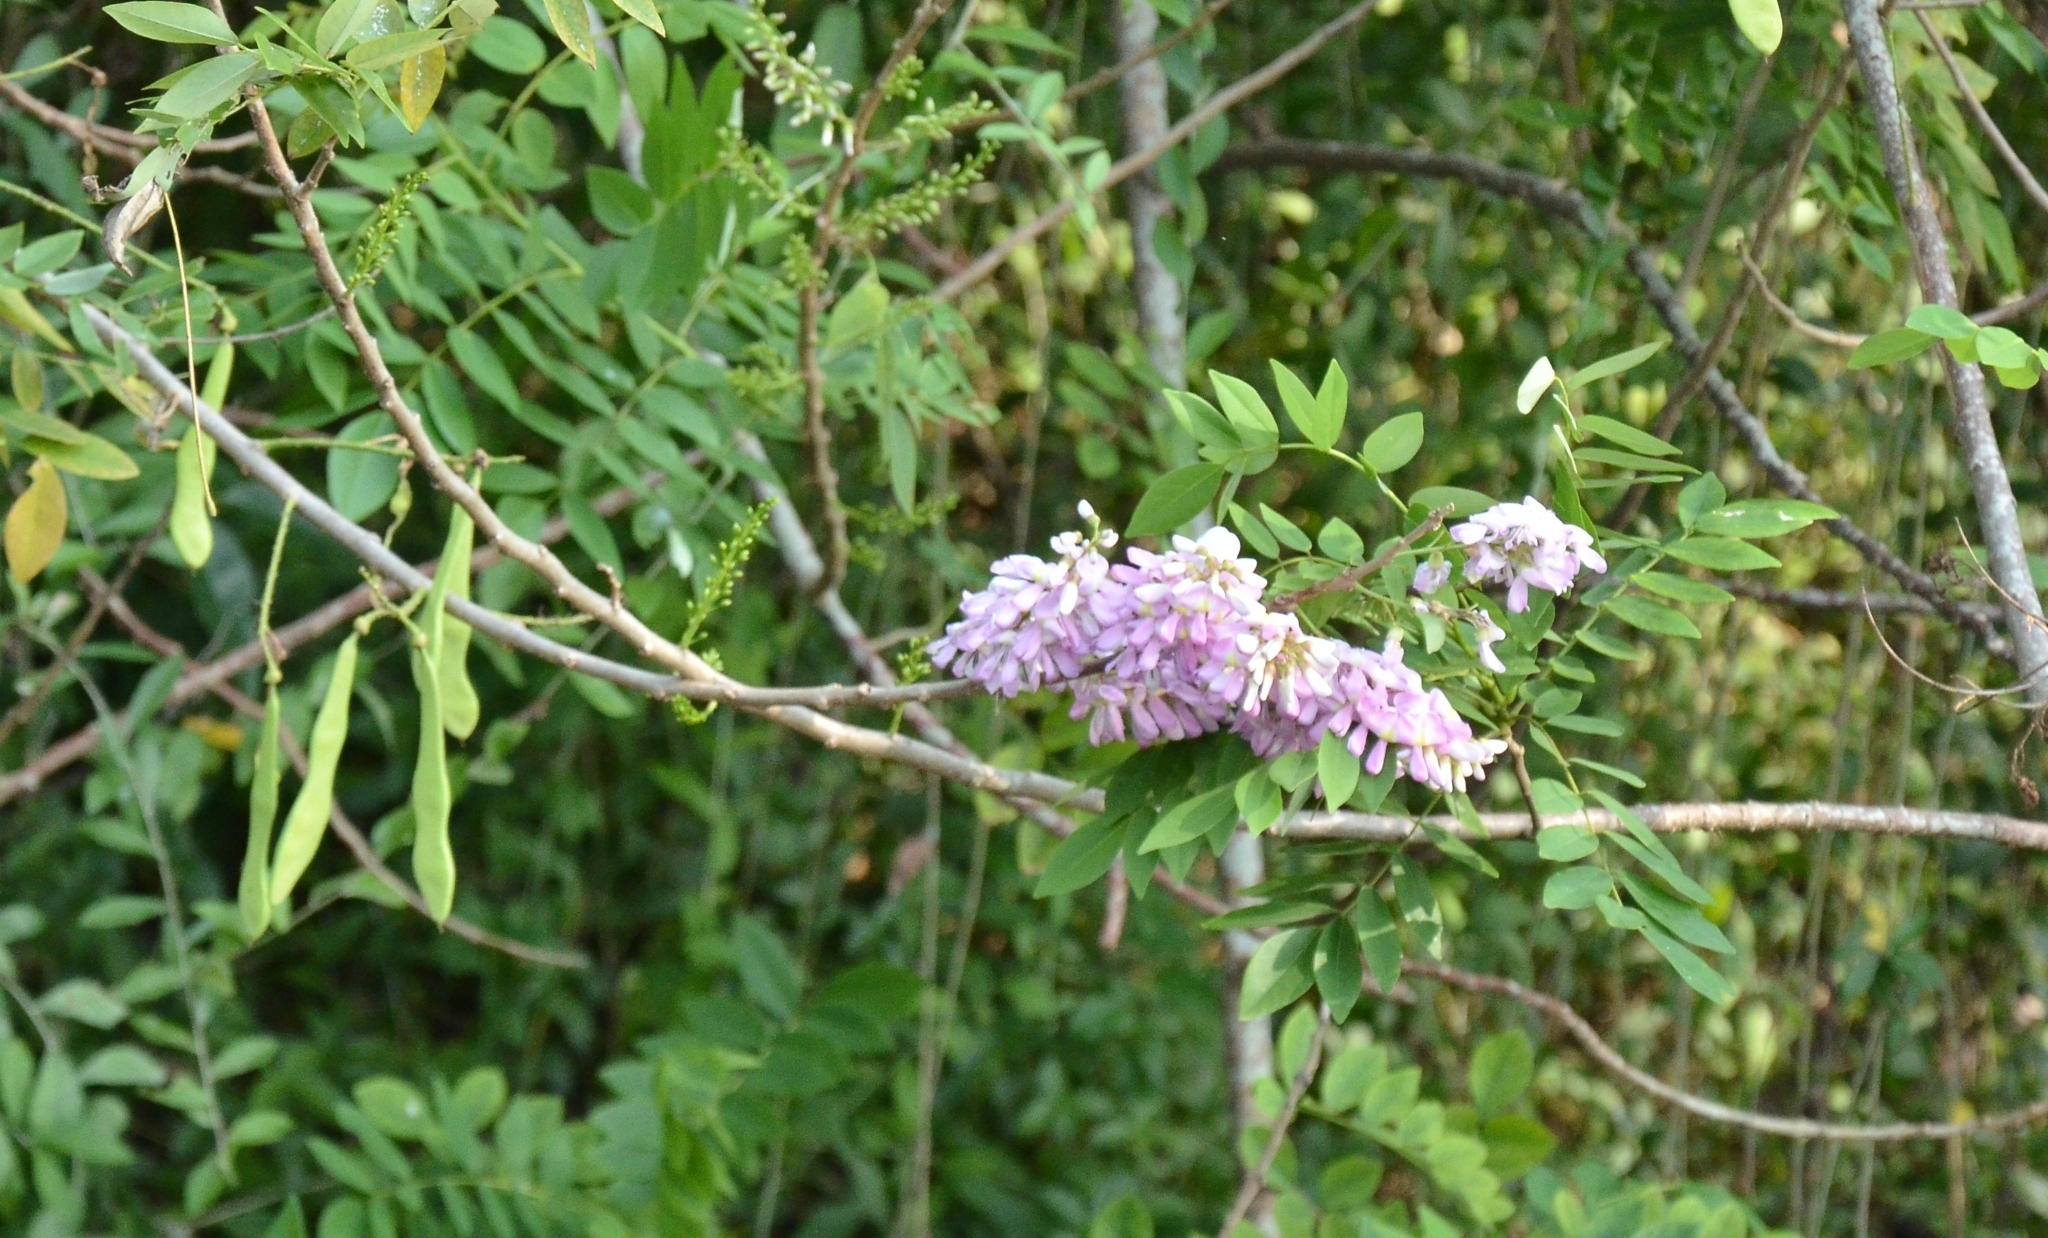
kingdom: Plantae
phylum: Tracheophyta
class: Magnoliopsida
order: Fabales
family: Fabaceae
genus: Gliricidia
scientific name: Gliricidia sepium
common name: Quickstick
